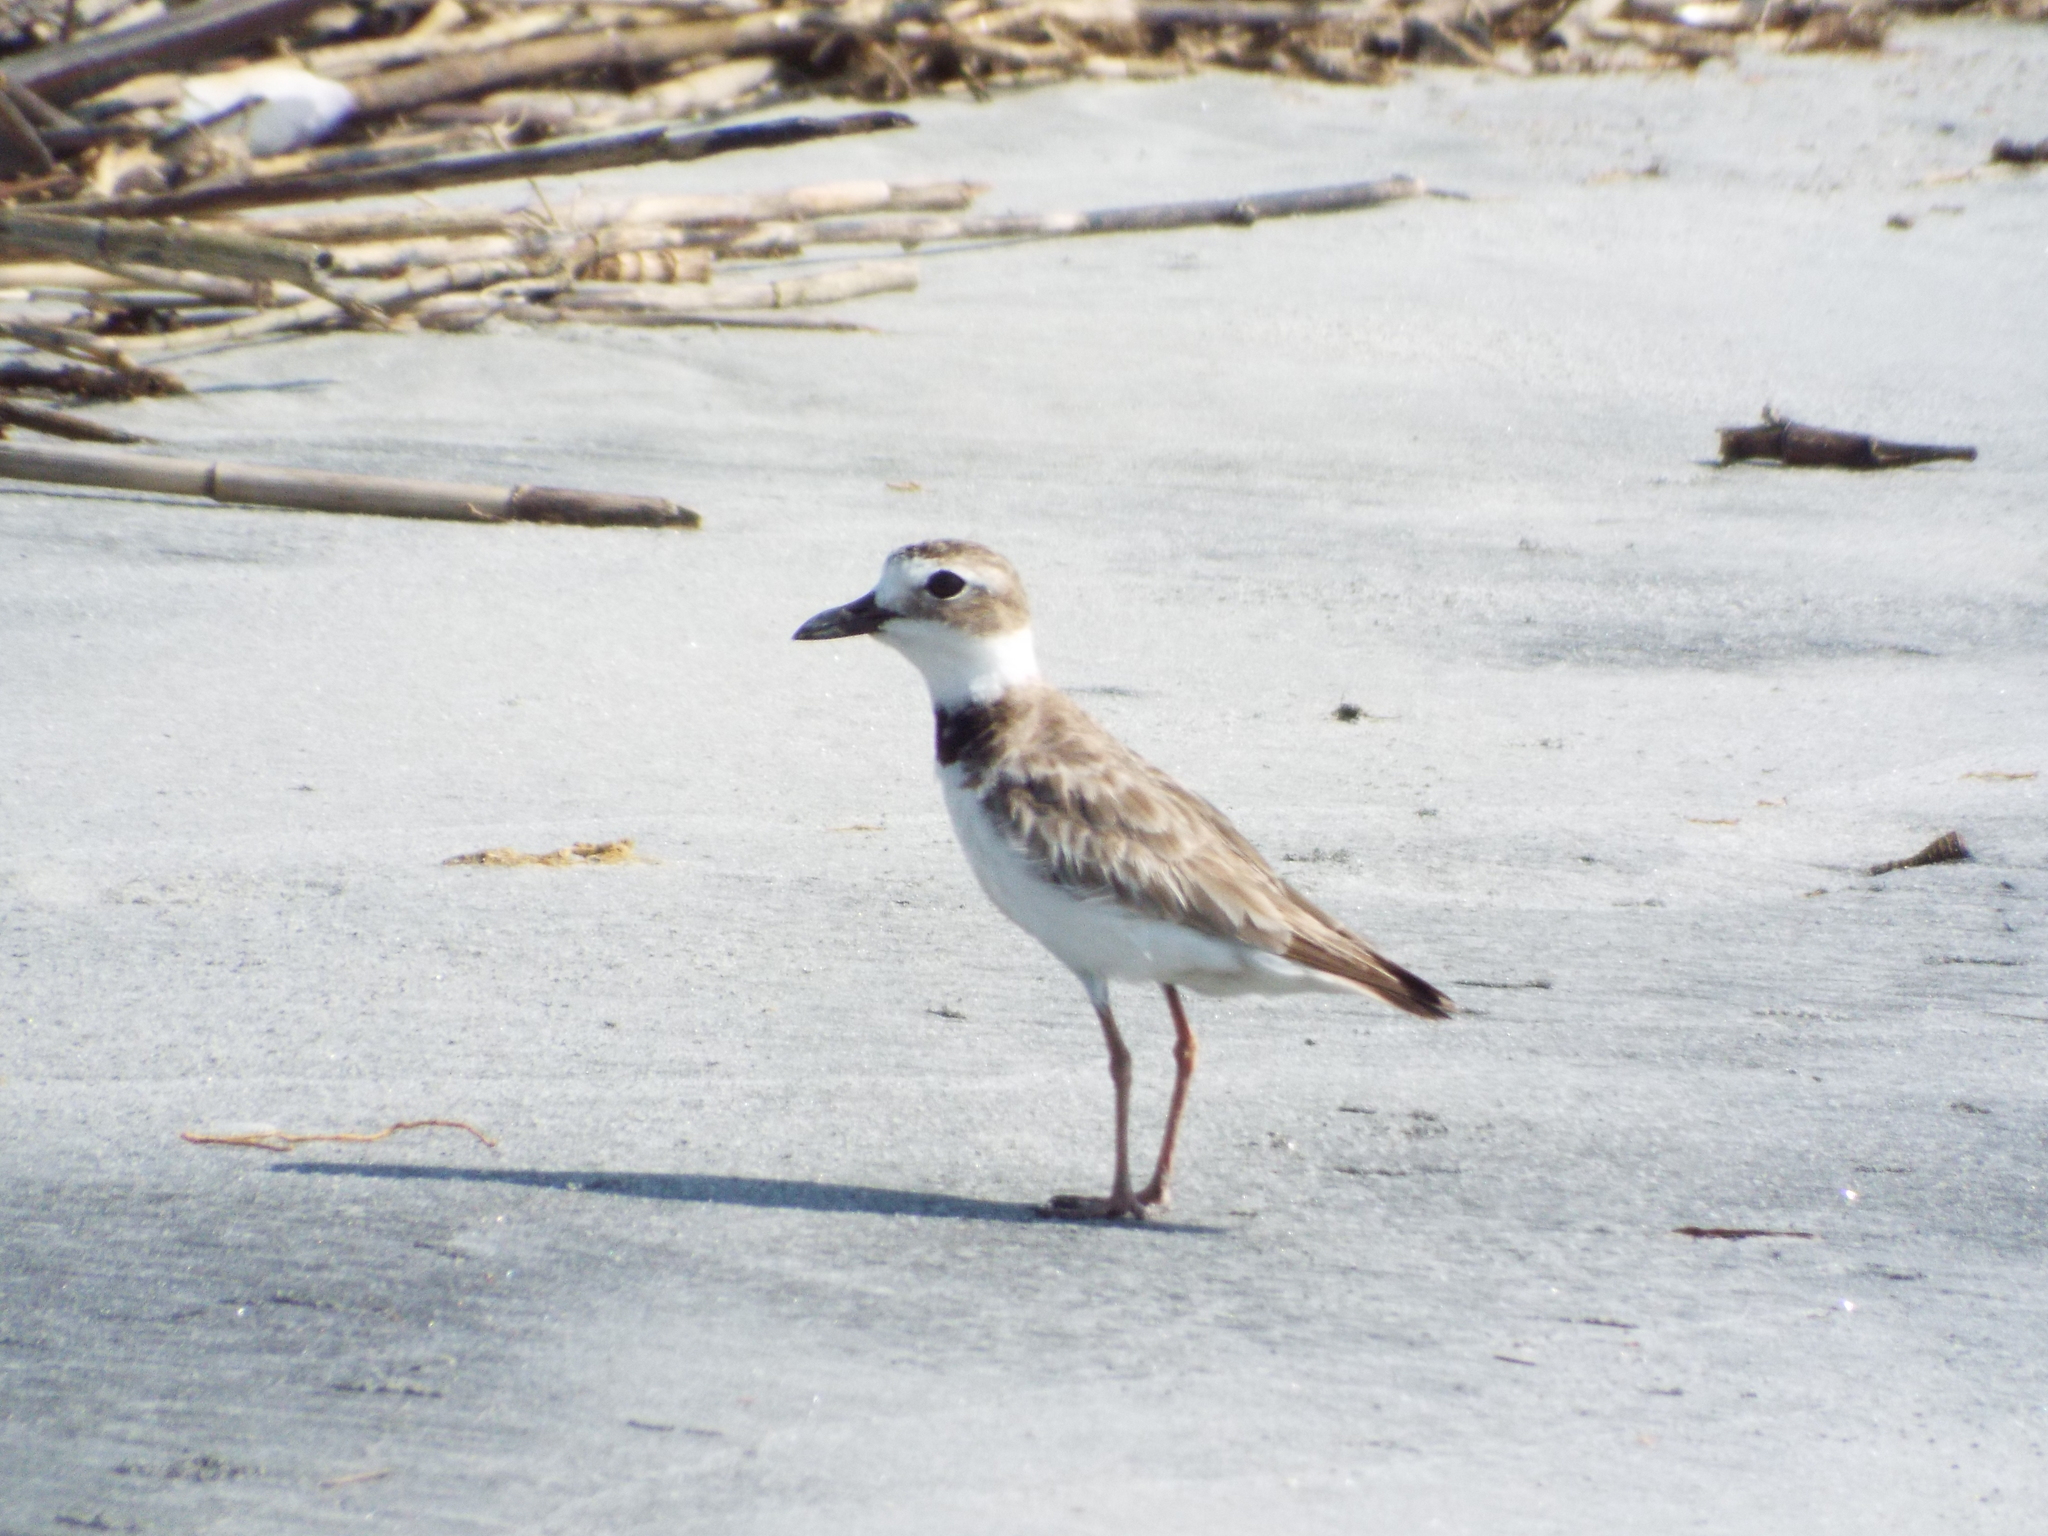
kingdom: Animalia
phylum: Chordata
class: Aves
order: Charadriiformes
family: Charadriidae
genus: Anarhynchus
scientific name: Anarhynchus
